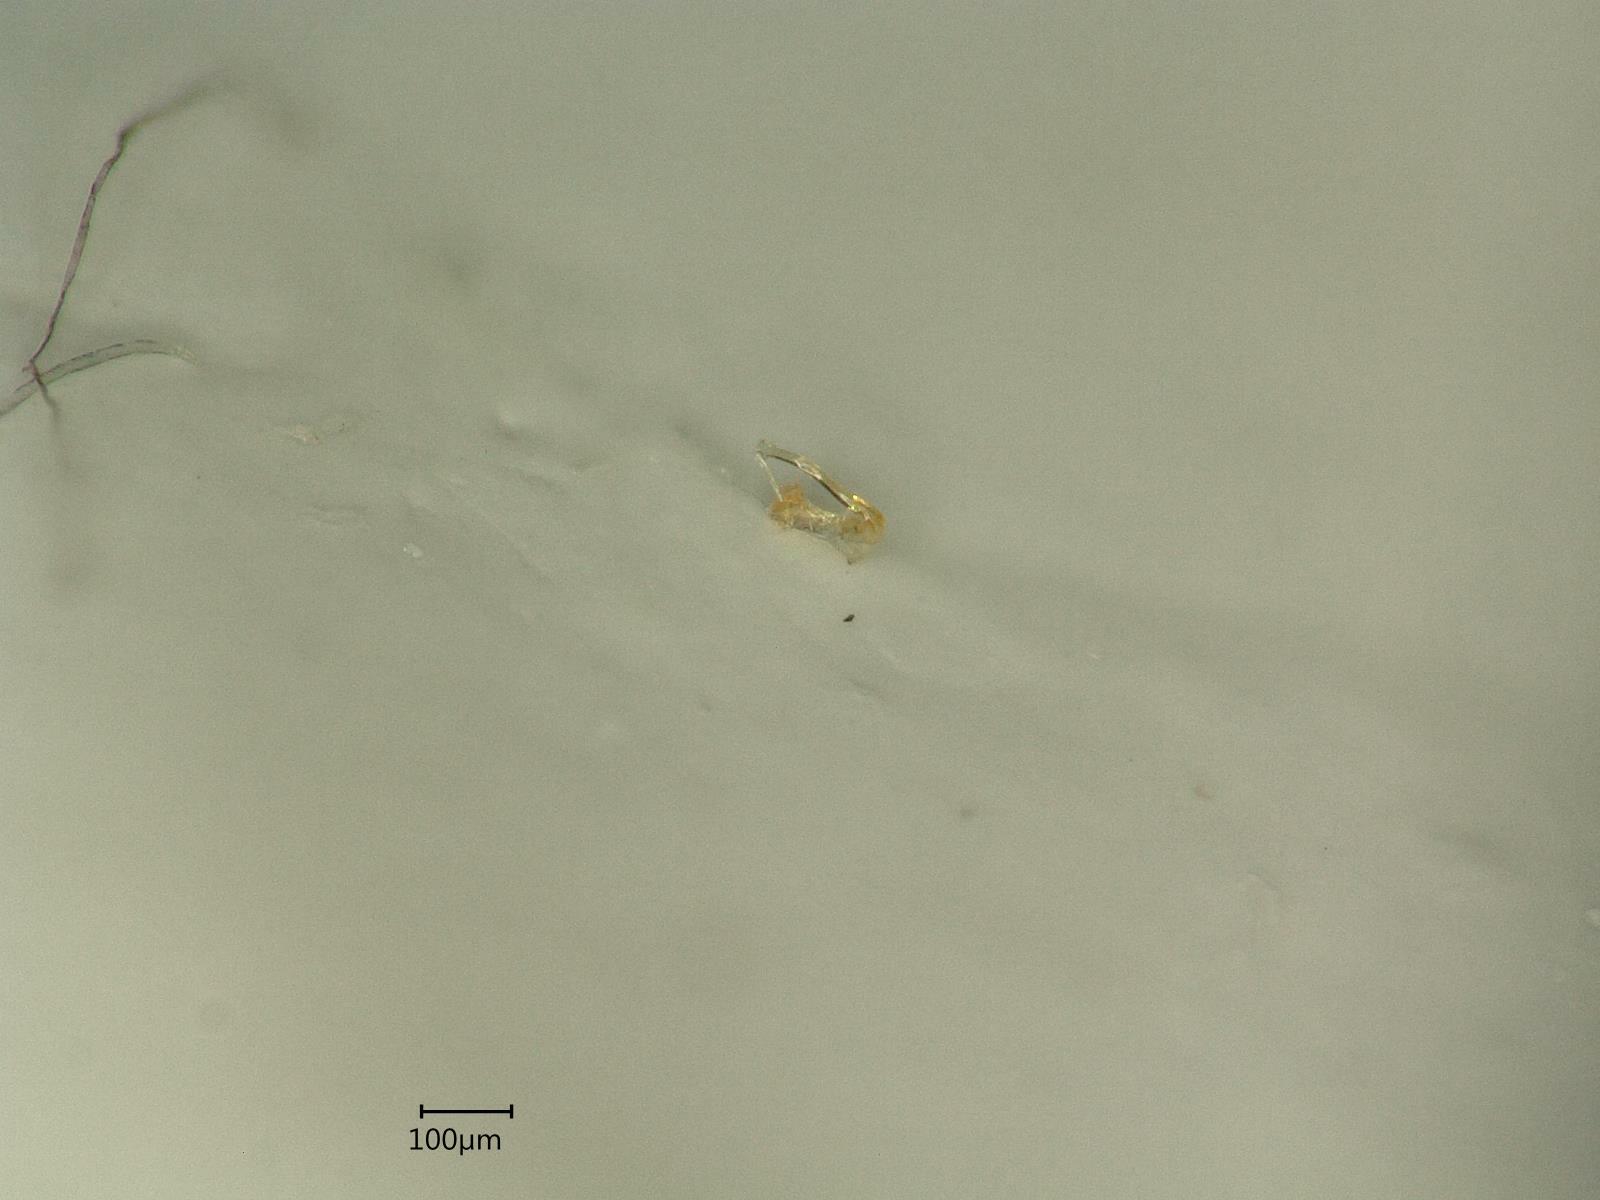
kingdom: Animalia
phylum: Arthropoda
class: Insecta
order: Hemiptera
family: Cicadellidae
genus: Eupteryx
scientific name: Eupteryx urticae
